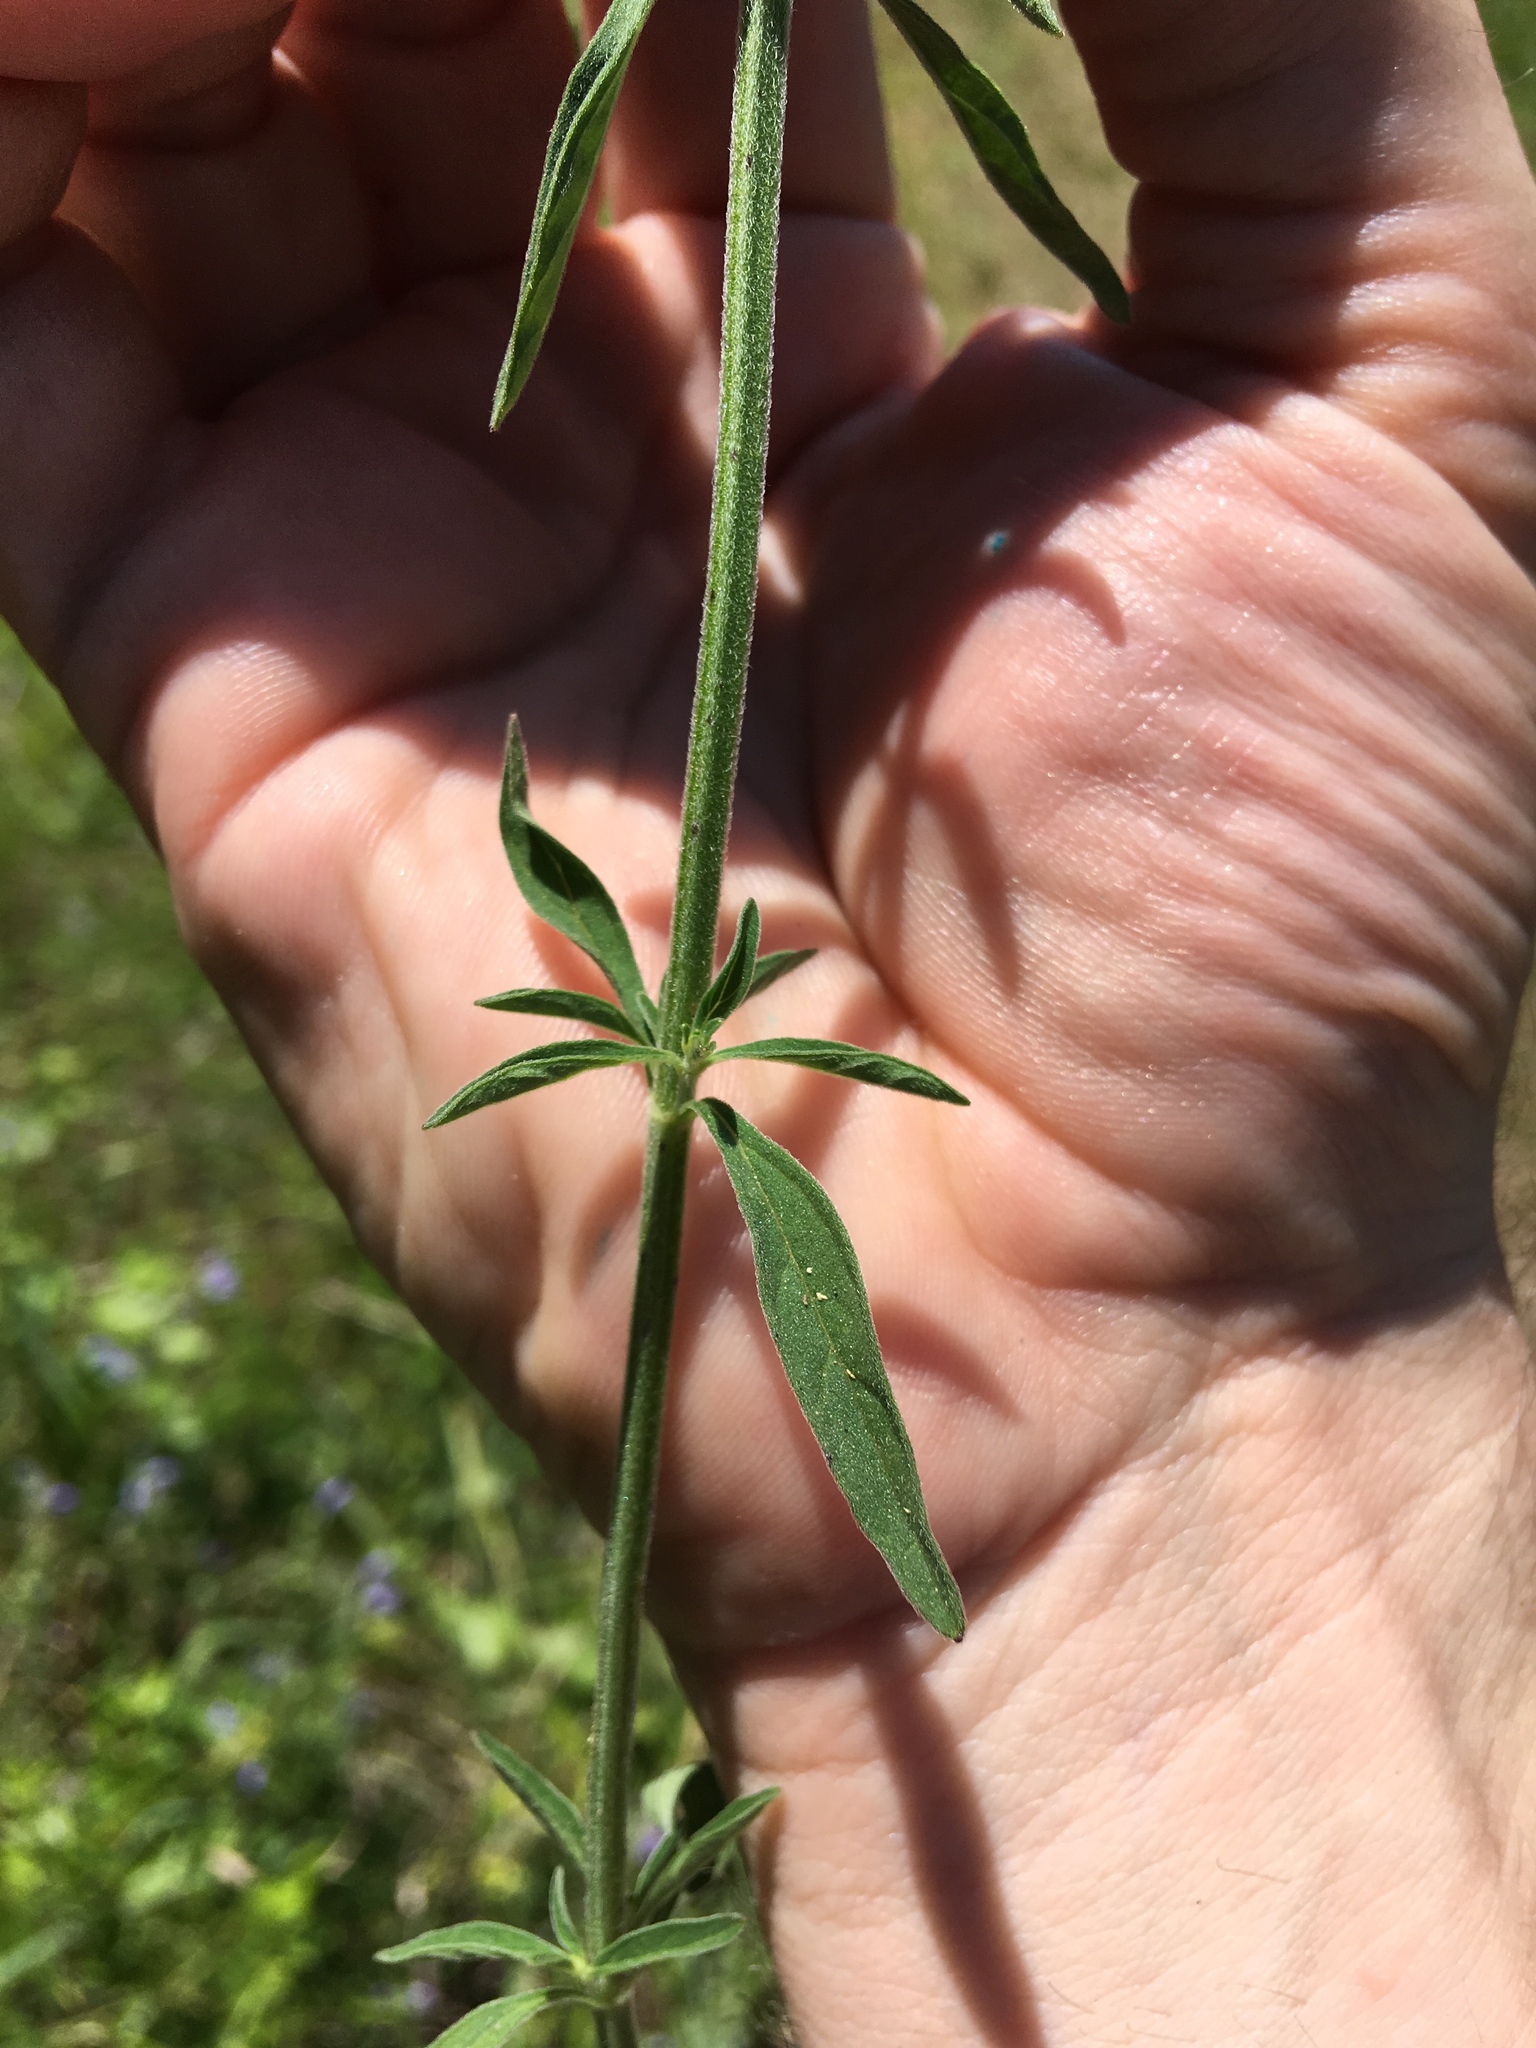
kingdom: Plantae
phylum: Tracheophyta
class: Magnoliopsida
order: Lamiales
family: Lamiaceae
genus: Scutellaria
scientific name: Scutellaria integrifolia
